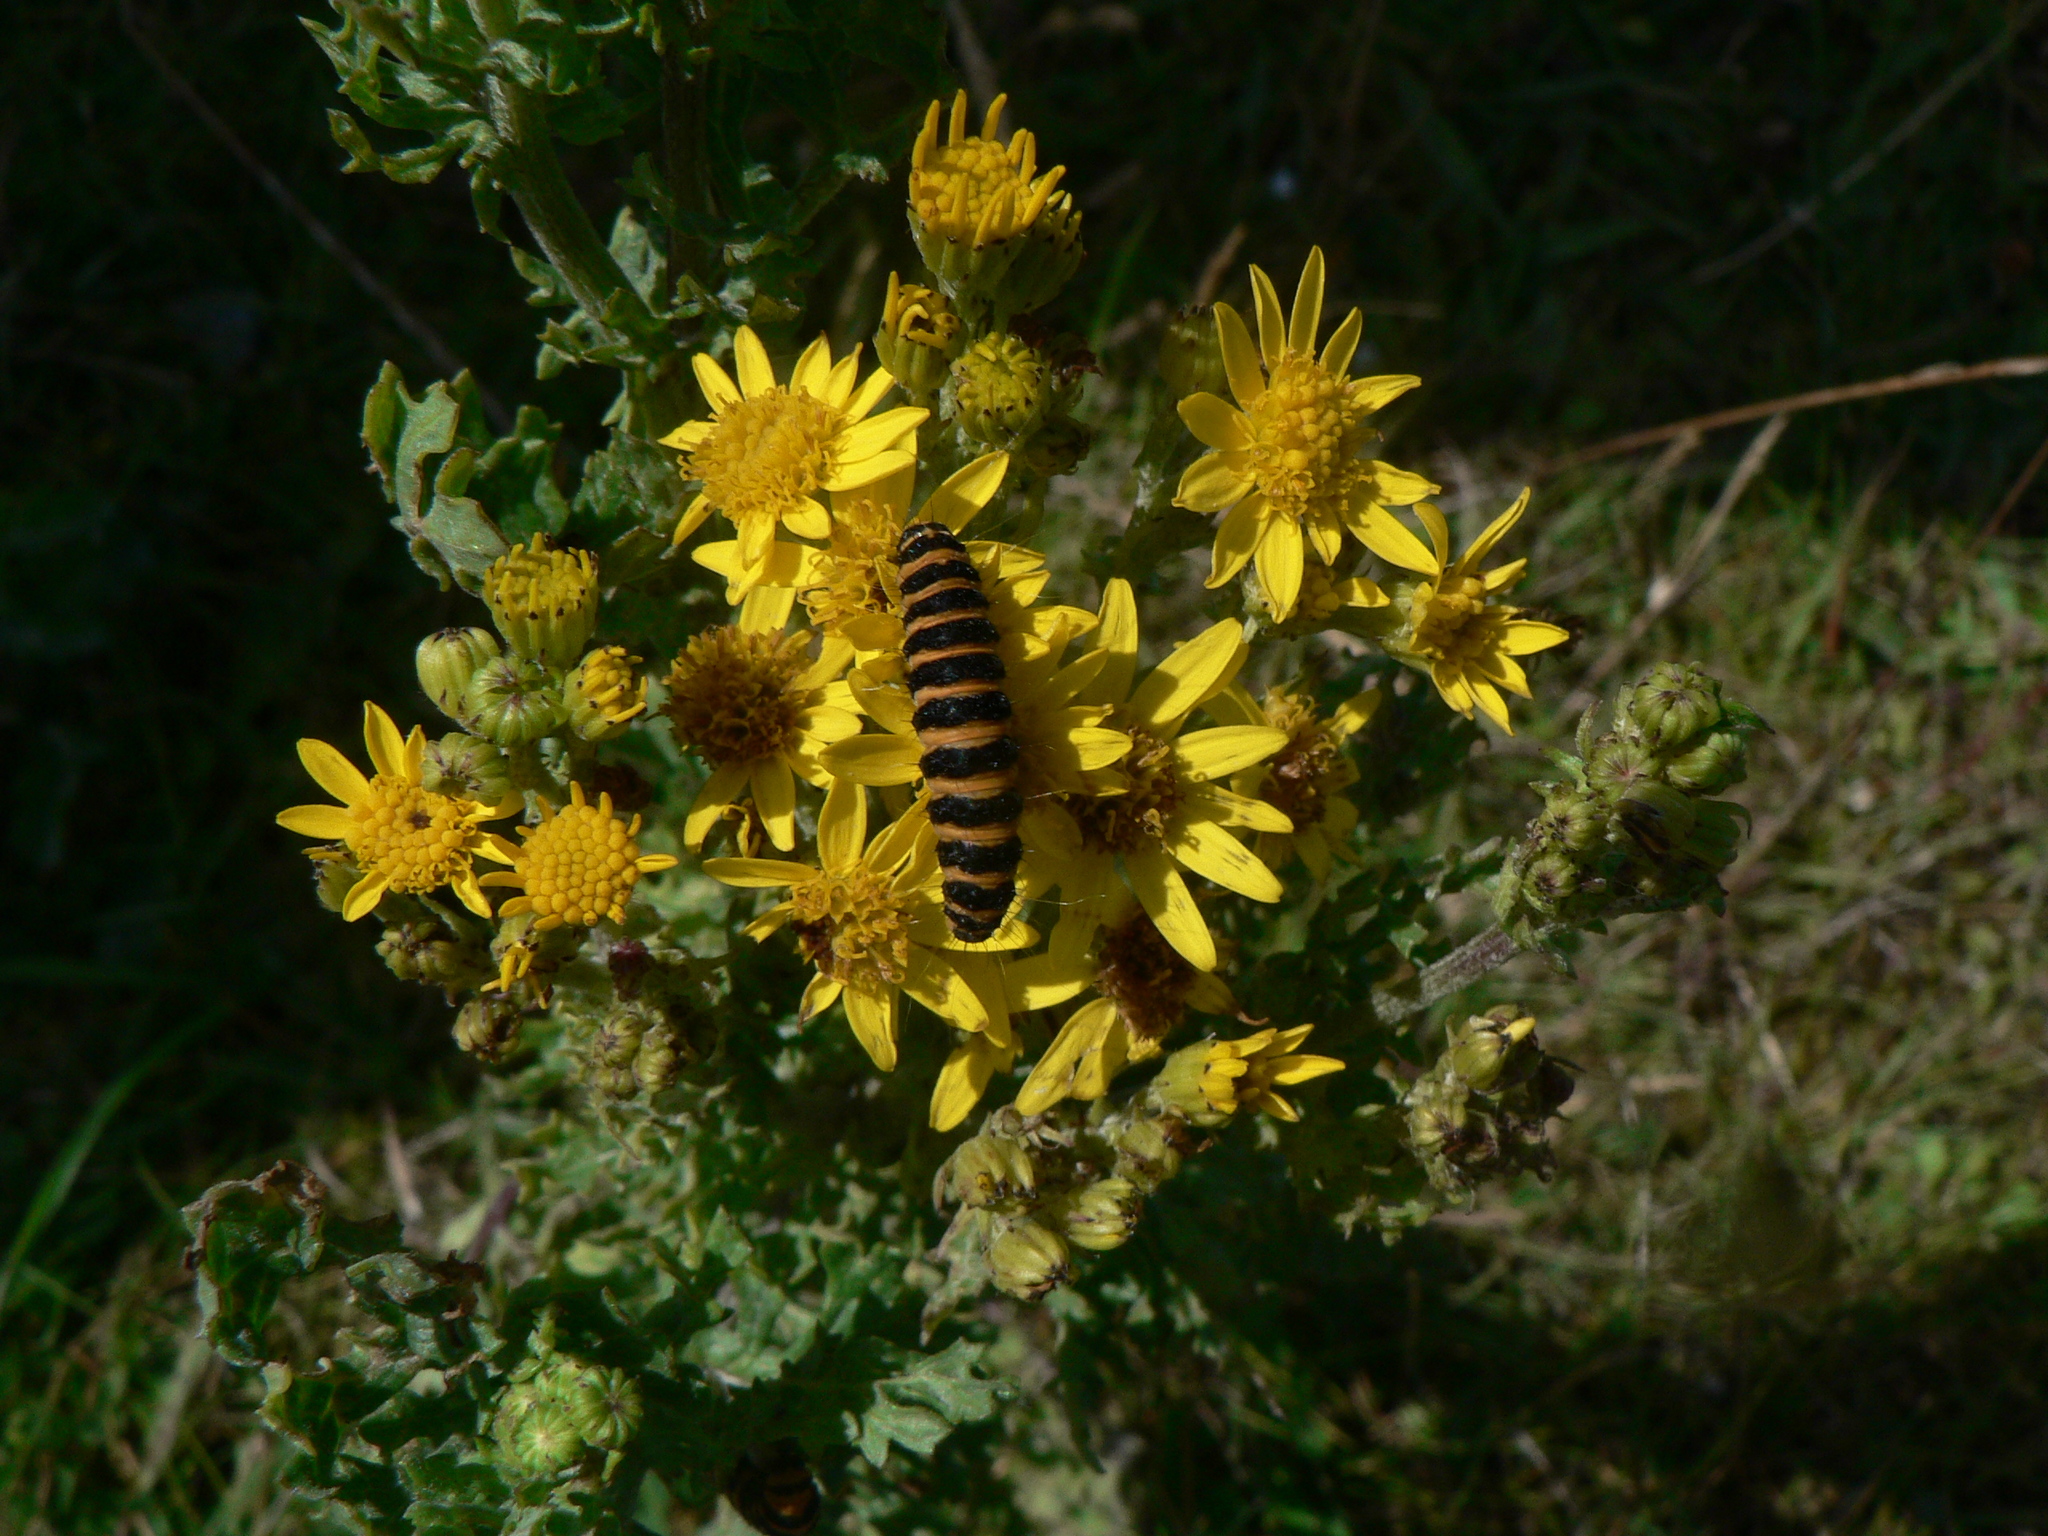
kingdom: Animalia
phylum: Arthropoda
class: Insecta
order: Lepidoptera
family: Erebidae
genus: Tyria
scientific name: Tyria jacobaeae
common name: Cinnabar
